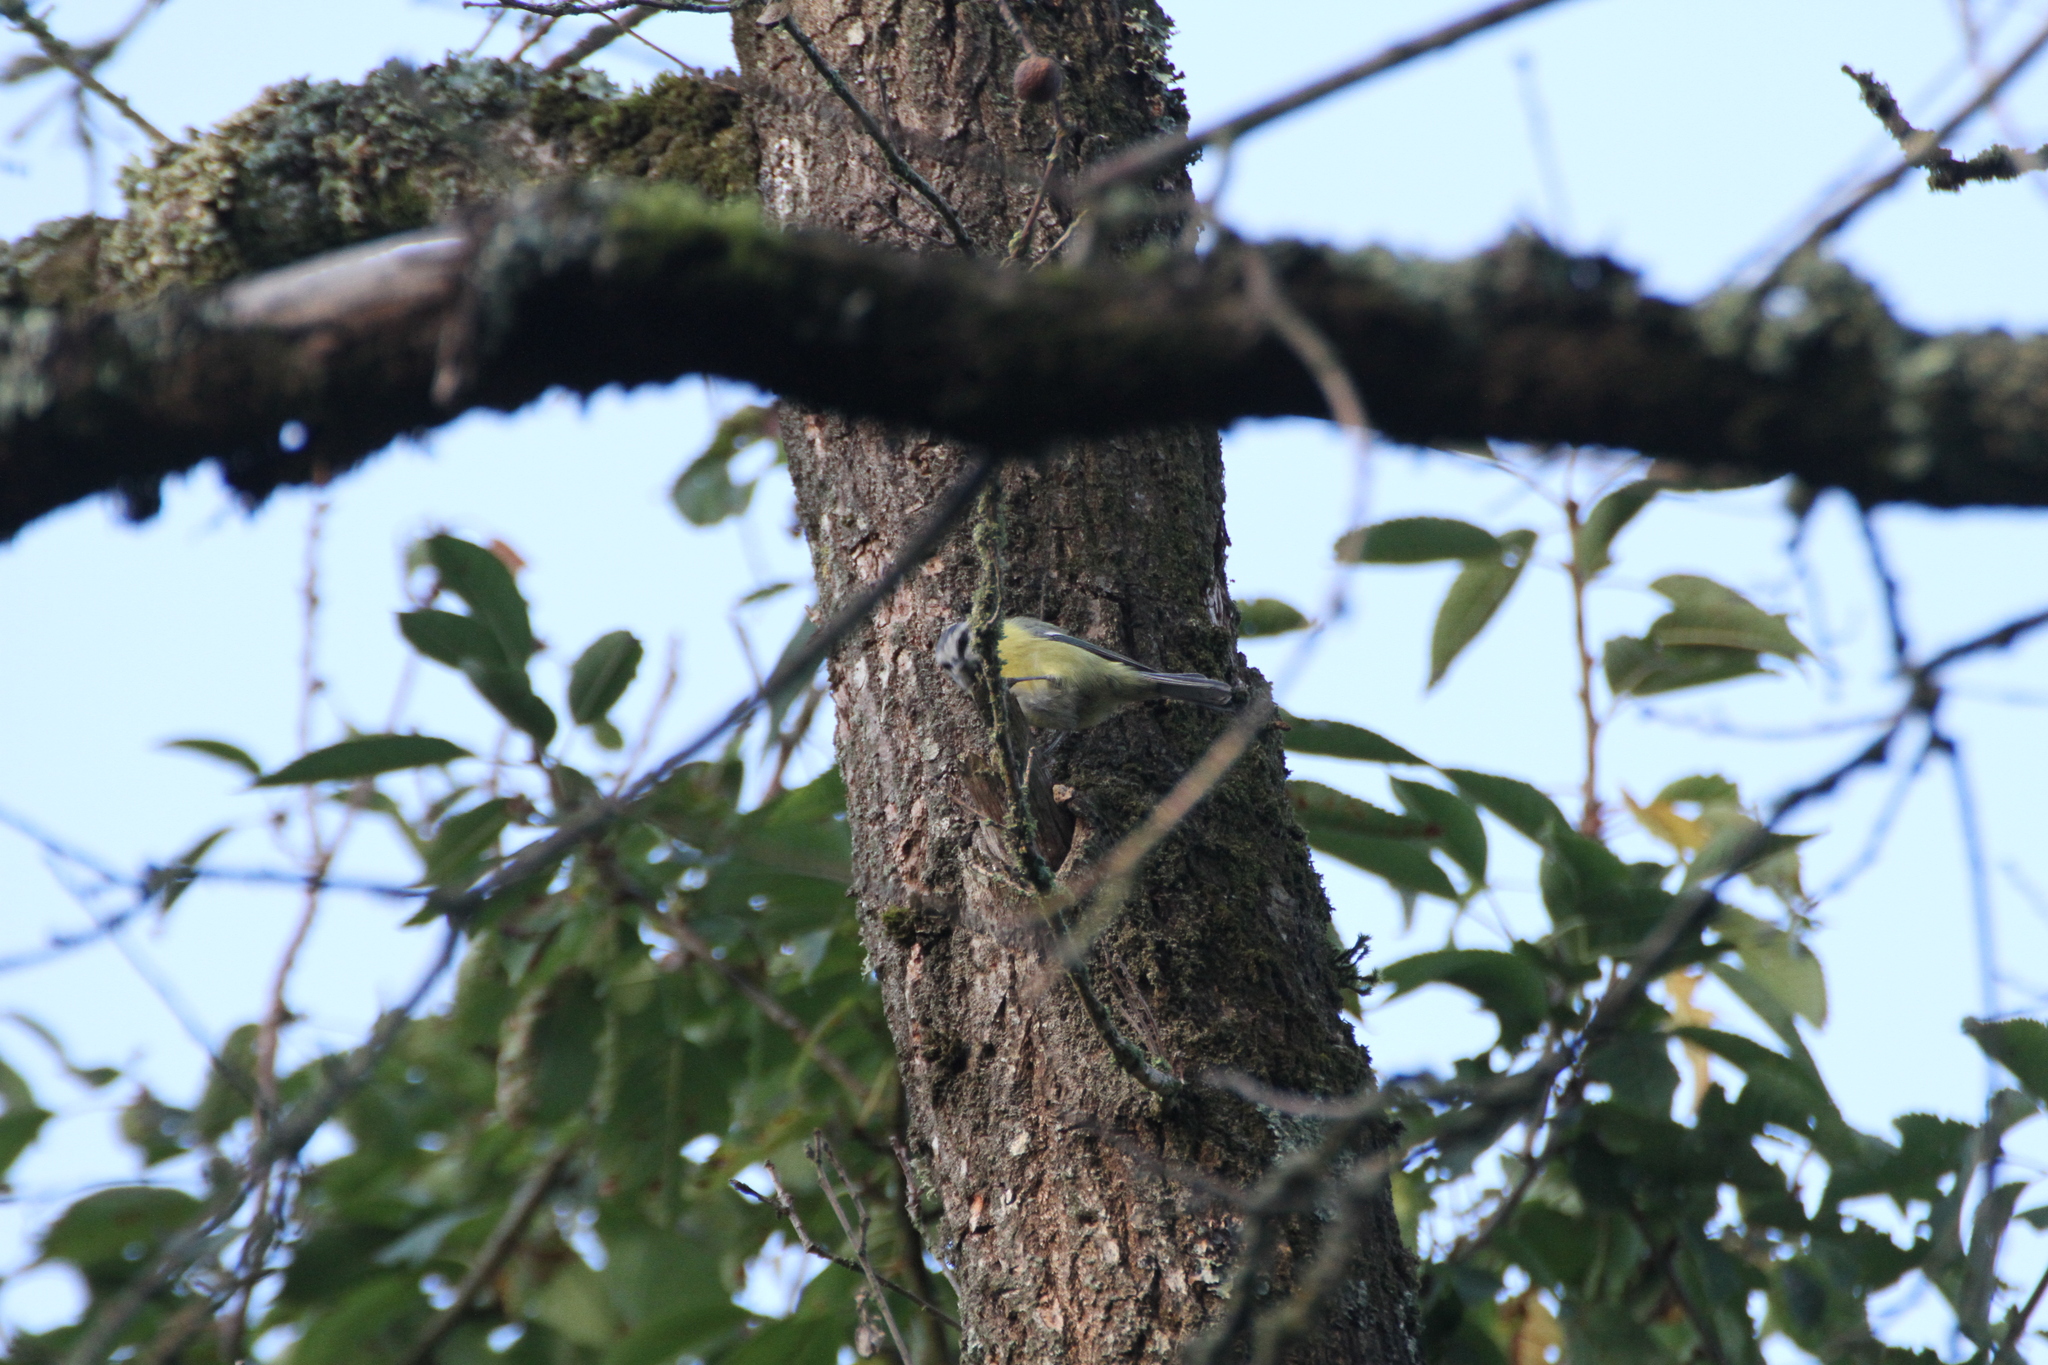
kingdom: Animalia
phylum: Chordata
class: Aves
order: Passeriformes
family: Paridae
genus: Cyanistes
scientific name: Cyanistes caeruleus
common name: Eurasian blue tit
